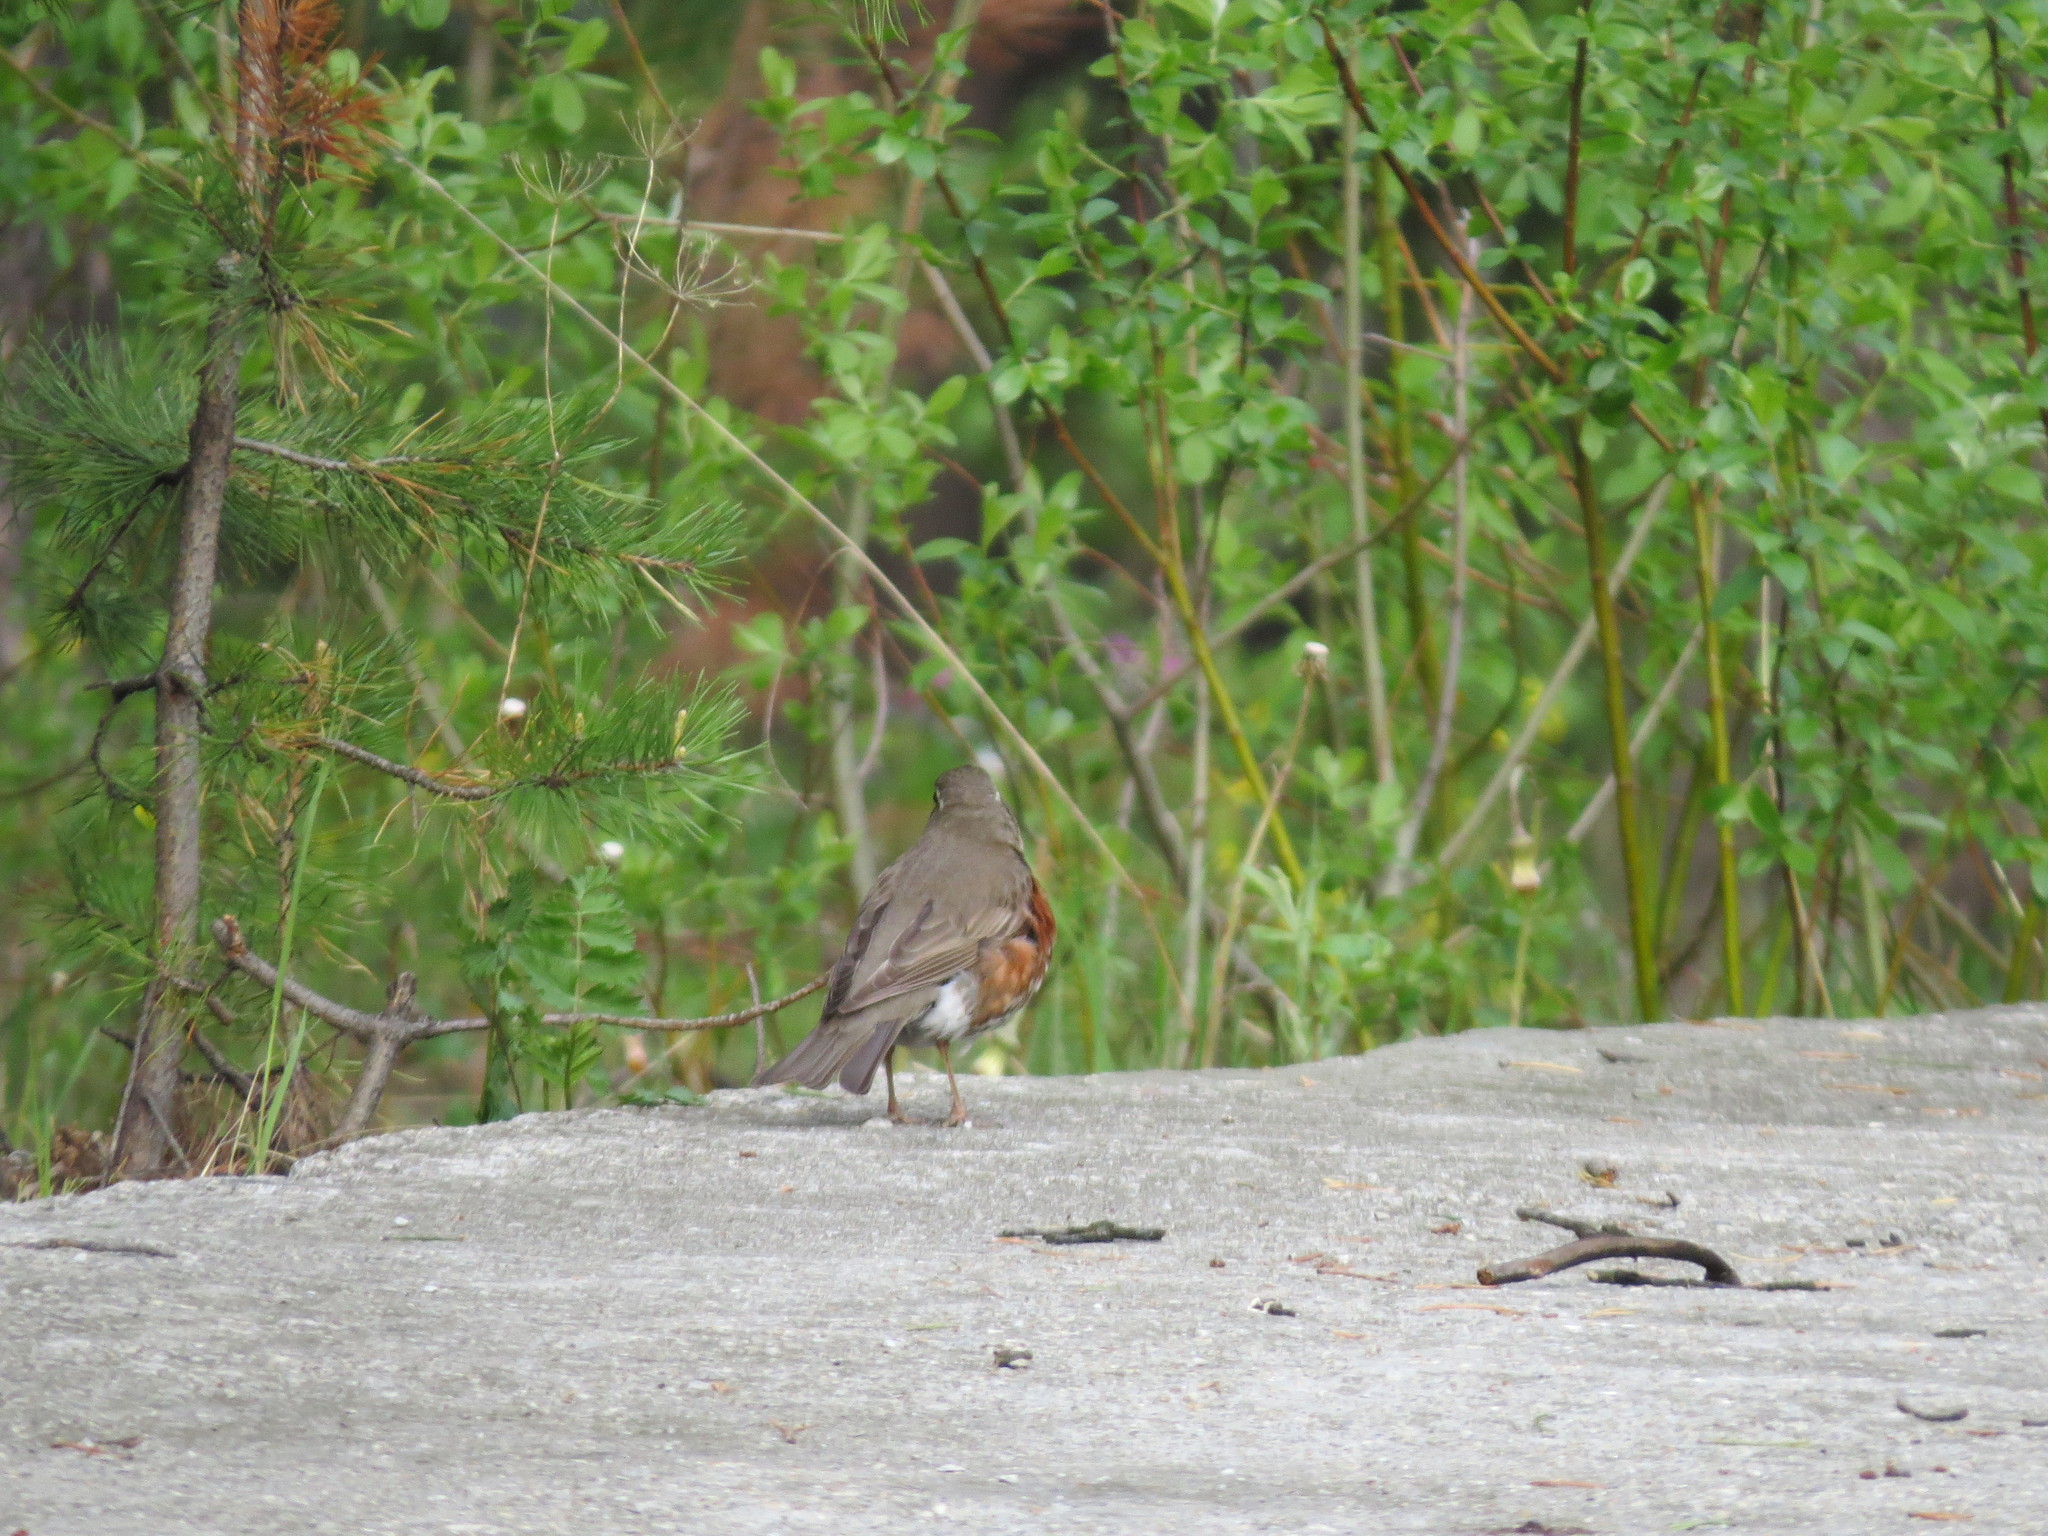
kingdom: Animalia
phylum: Chordata
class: Aves
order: Passeriformes
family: Turdidae
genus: Turdus
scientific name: Turdus iliacus
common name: Redwing
